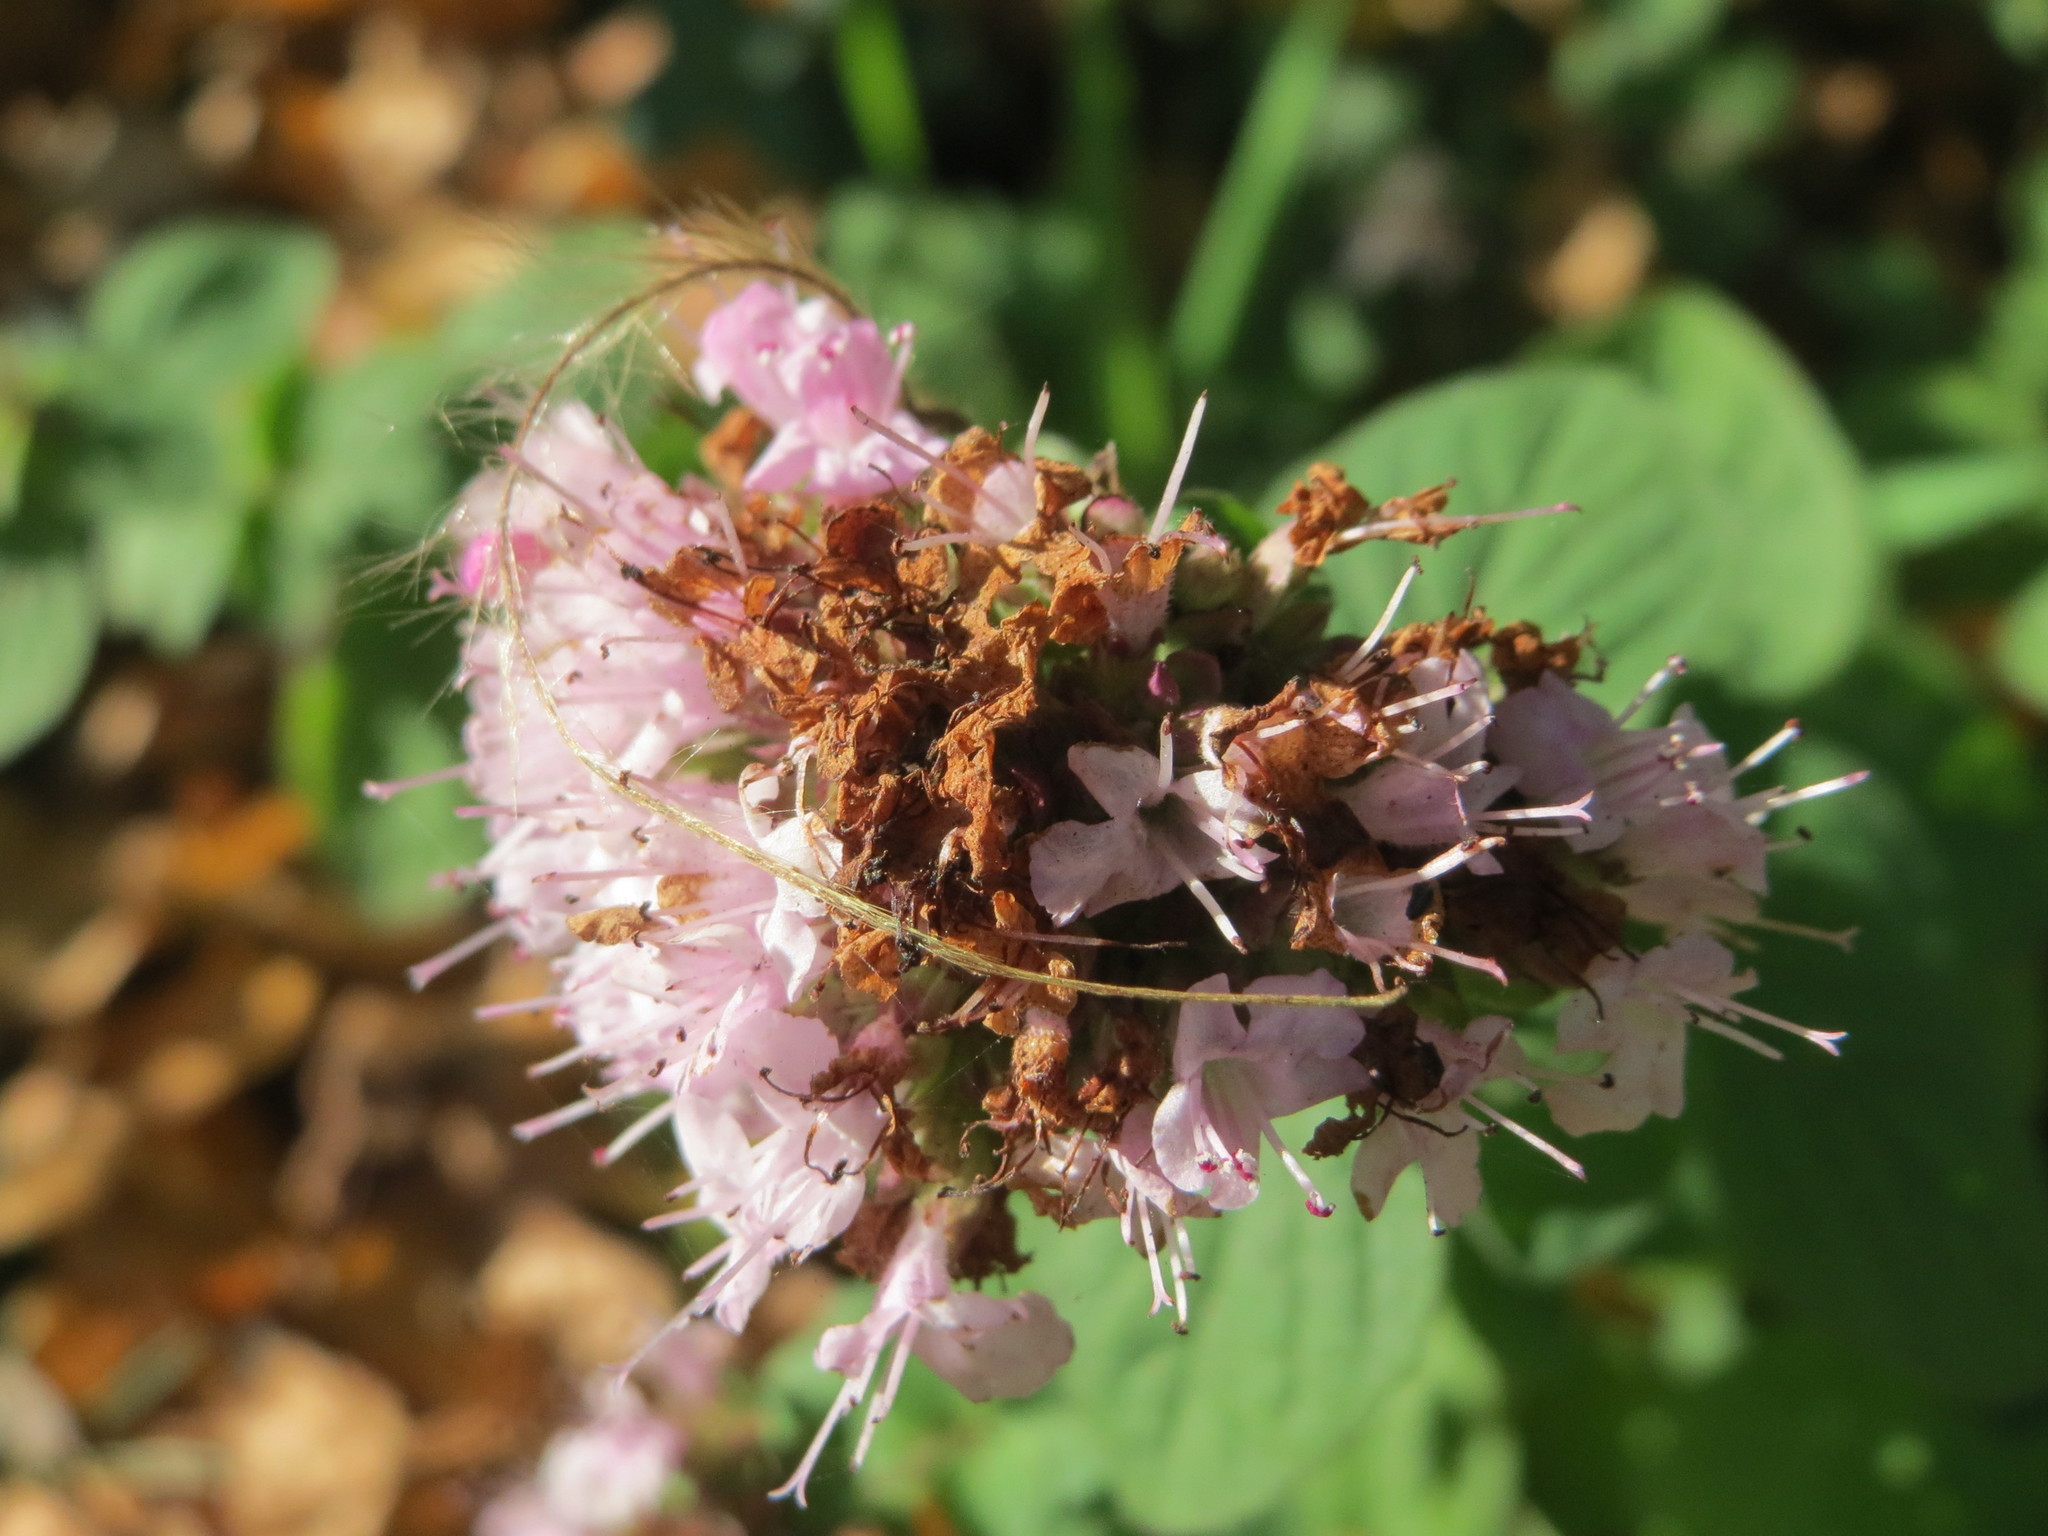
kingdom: Plantae
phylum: Tracheophyta
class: Magnoliopsida
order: Lamiales
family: Lamiaceae
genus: Origanum
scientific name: Origanum vulgare
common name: Wild marjoram
